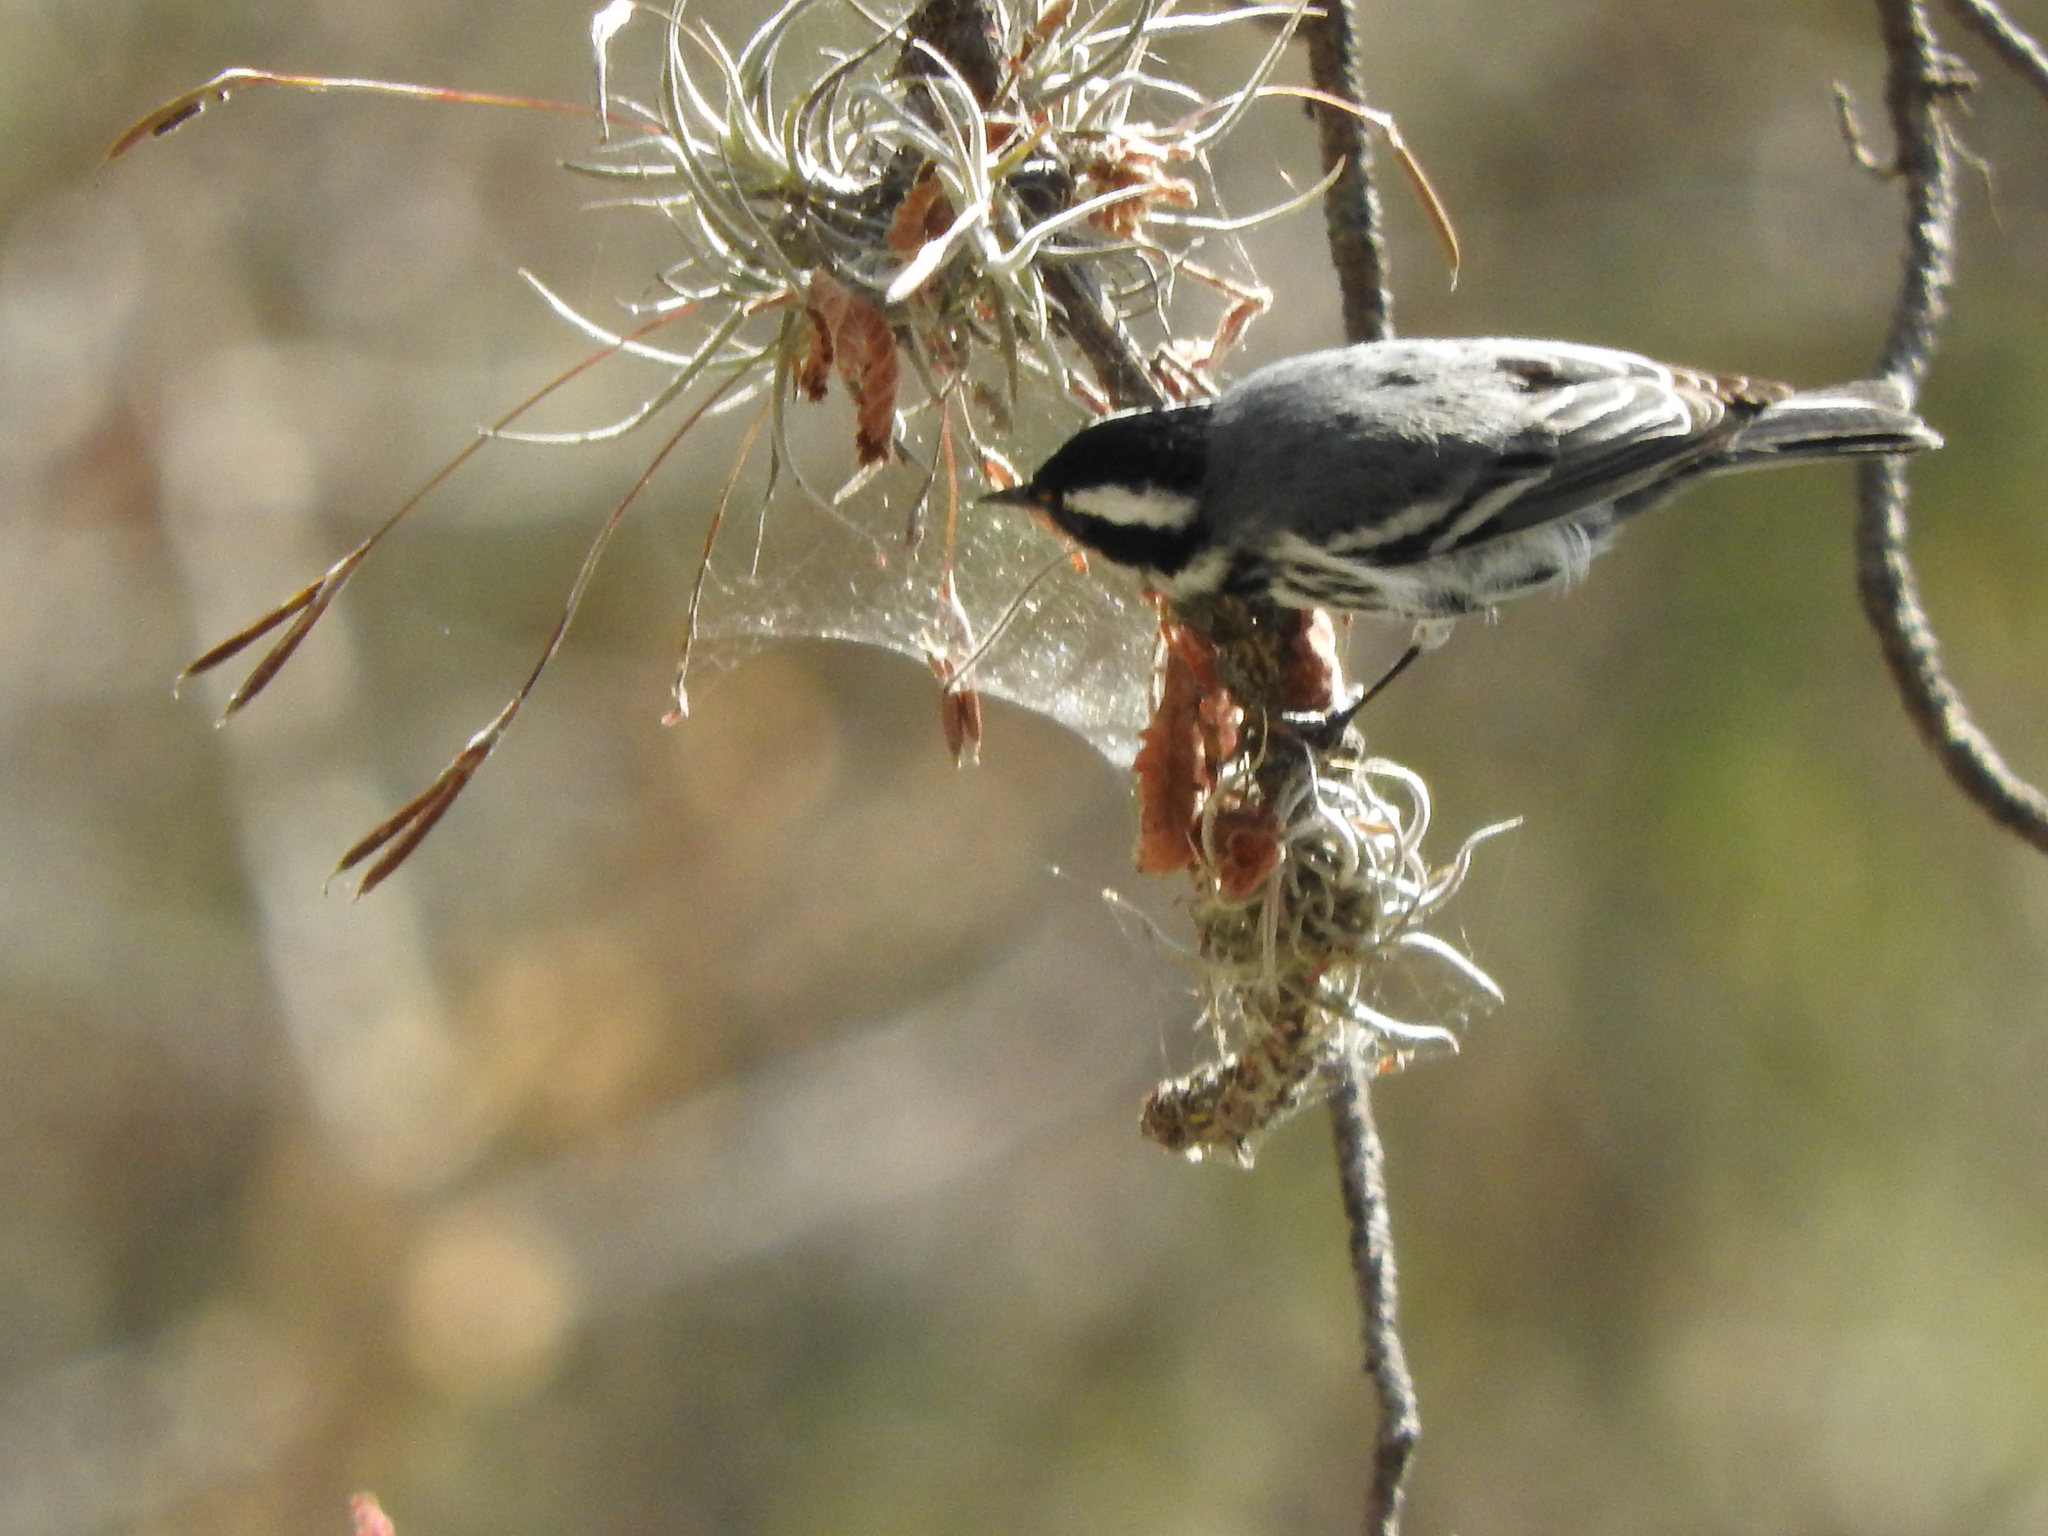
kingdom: Animalia
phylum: Chordata
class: Aves
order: Passeriformes
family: Parulidae
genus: Setophaga
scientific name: Setophaga nigrescens
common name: Black-throated gray warbler
